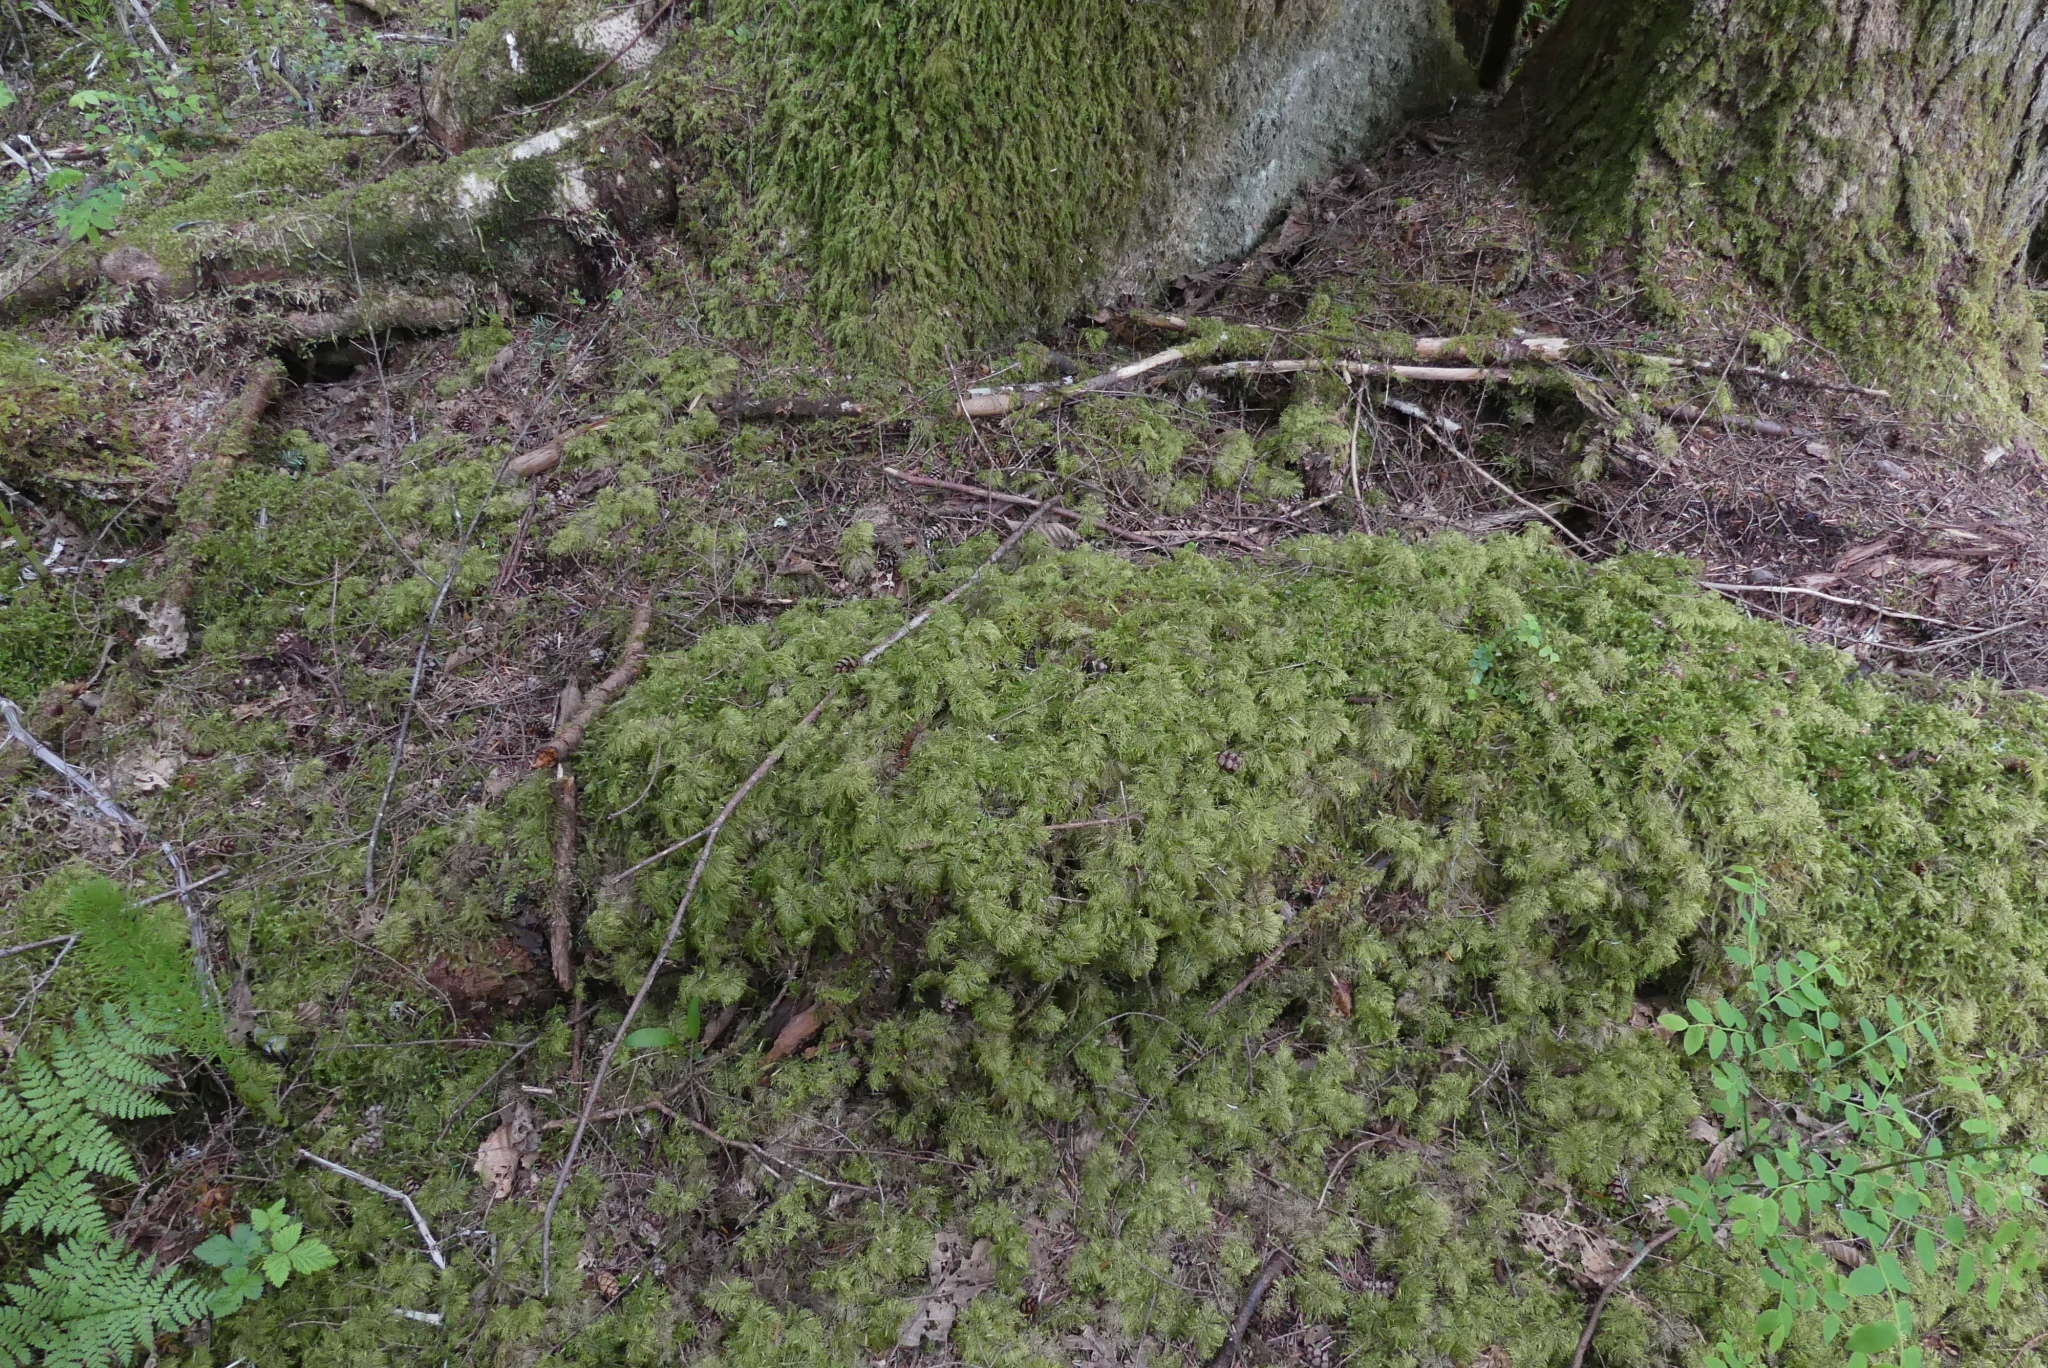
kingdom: Plantae
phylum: Bryophyta
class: Bryopsida
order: Hypnales
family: Hylocomiaceae
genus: Hylocomium
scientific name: Hylocomium splendens
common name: Stairstep moss
